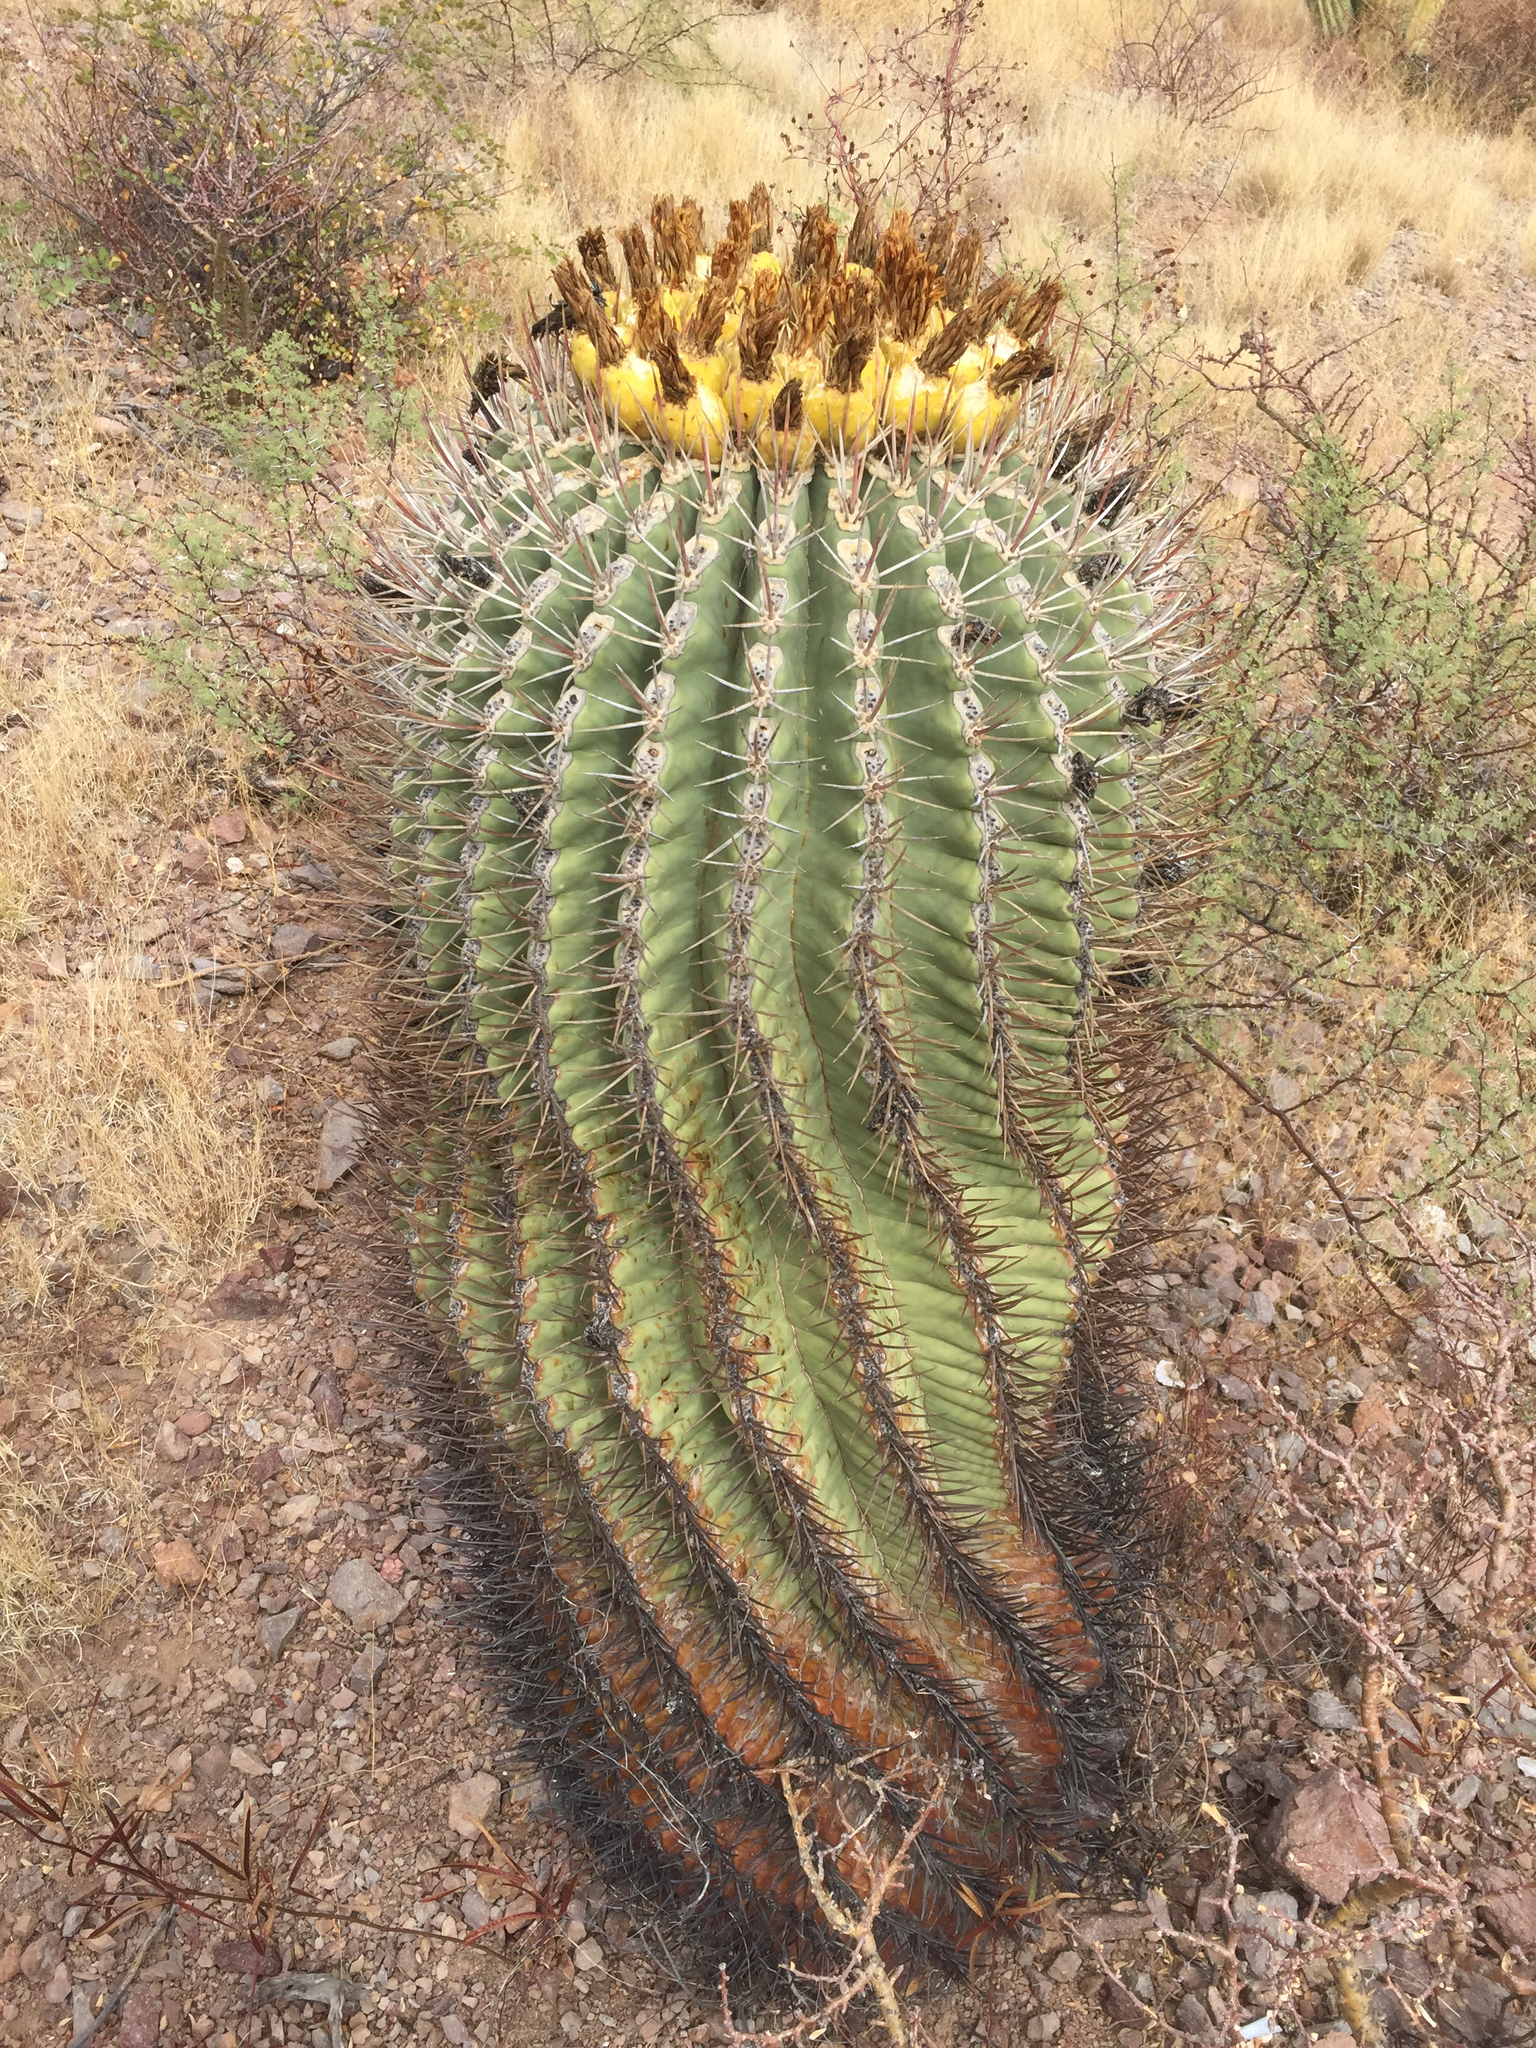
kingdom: Plantae
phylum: Tracheophyta
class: Magnoliopsida
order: Caryophyllales
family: Cactaceae
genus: Ferocactus
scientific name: Ferocactus emoryi
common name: Emory's barrel cactus
